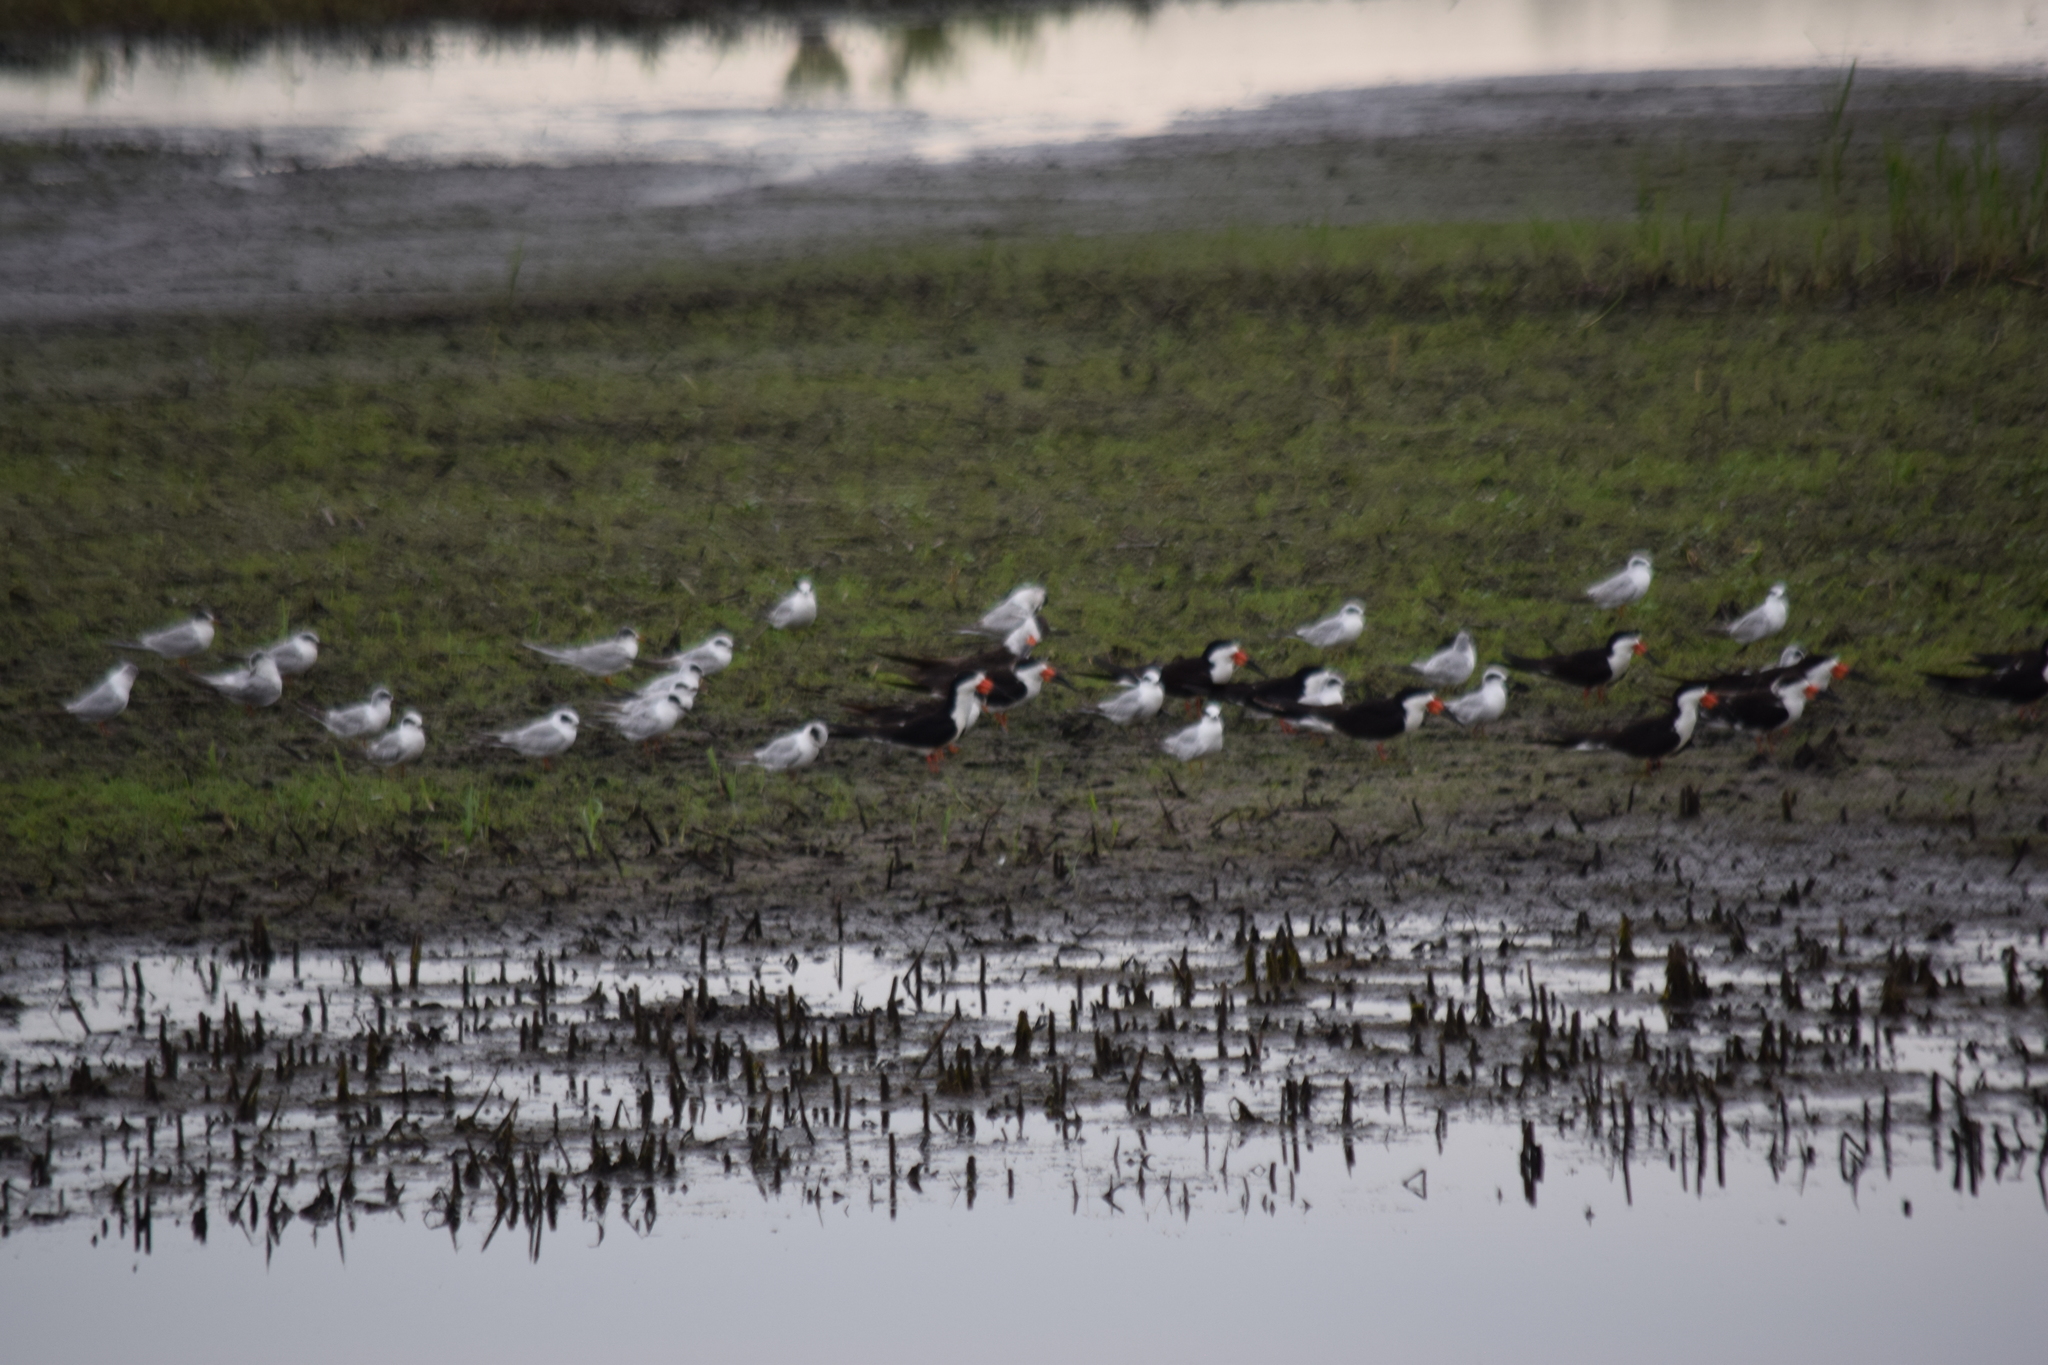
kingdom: Animalia
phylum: Chordata
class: Aves
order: Charadriiformes
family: Laridae
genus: Rynchops
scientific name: Rynchops niger
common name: Black skimmer
